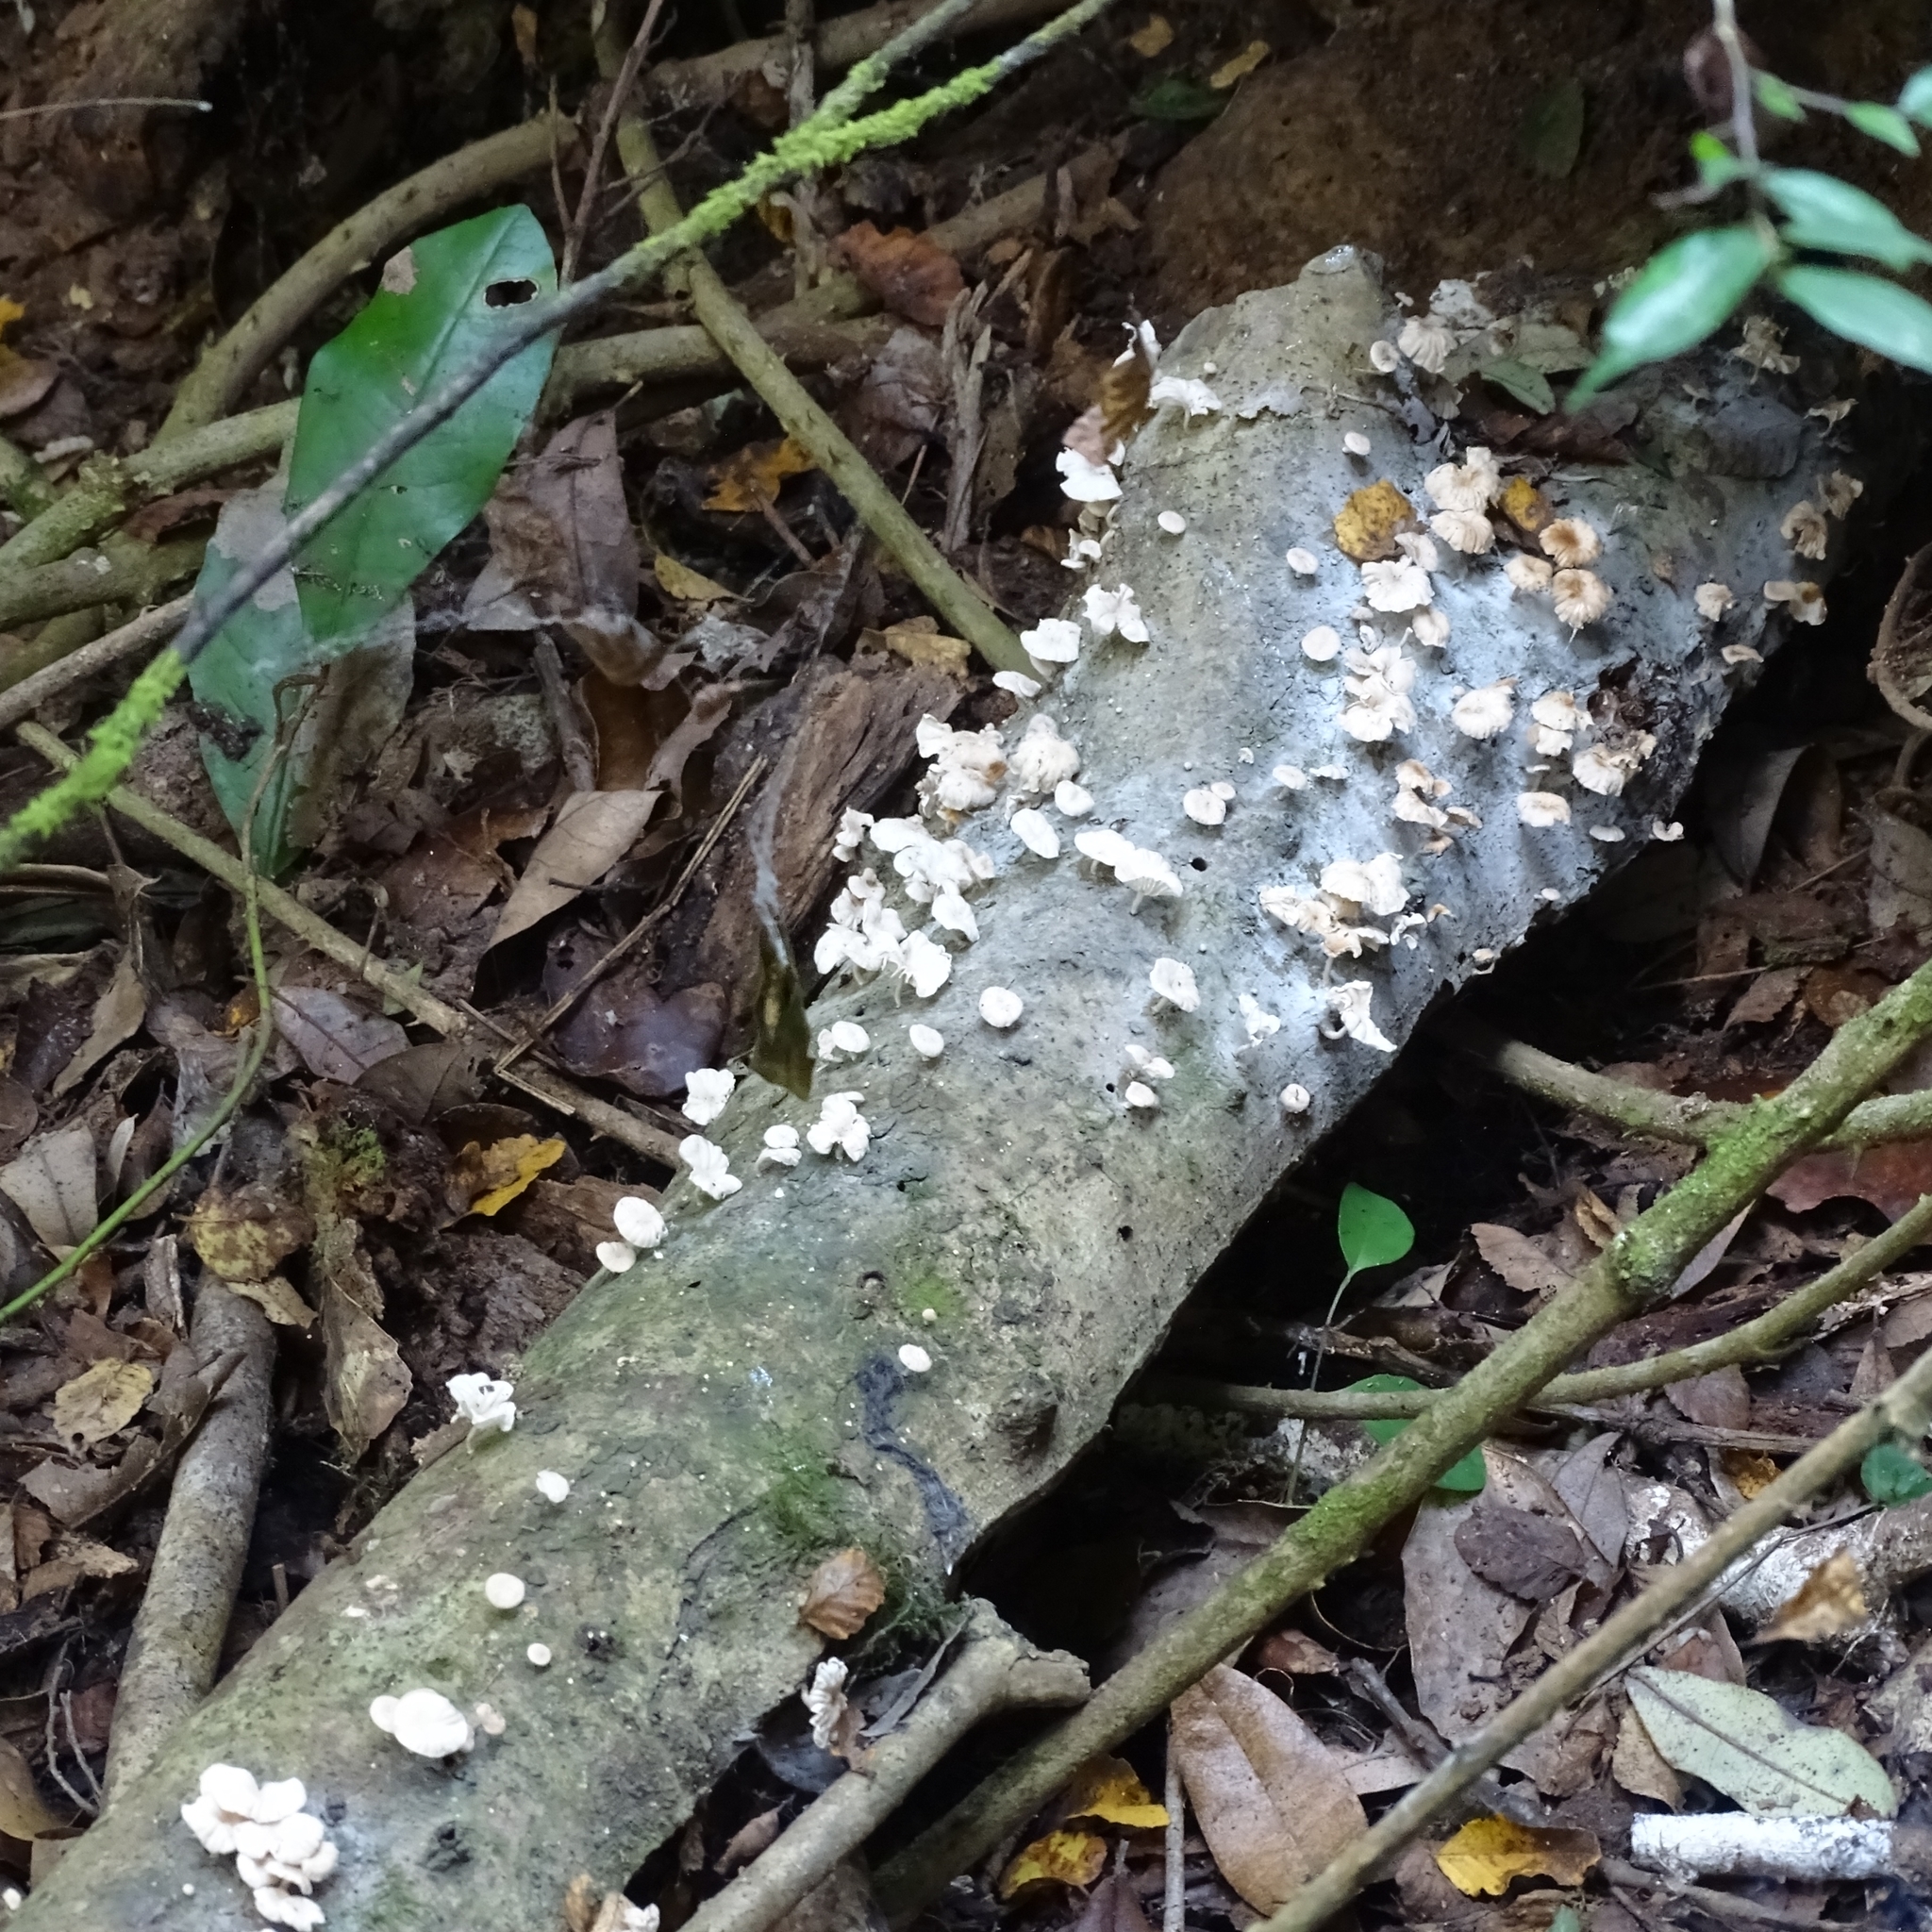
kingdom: Fungi
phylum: Basidiomycota
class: Agaricomycetes
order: Agaricales
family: Omphalotaceae
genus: Marasmiellus
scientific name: Marasmiellus alliiodorus
